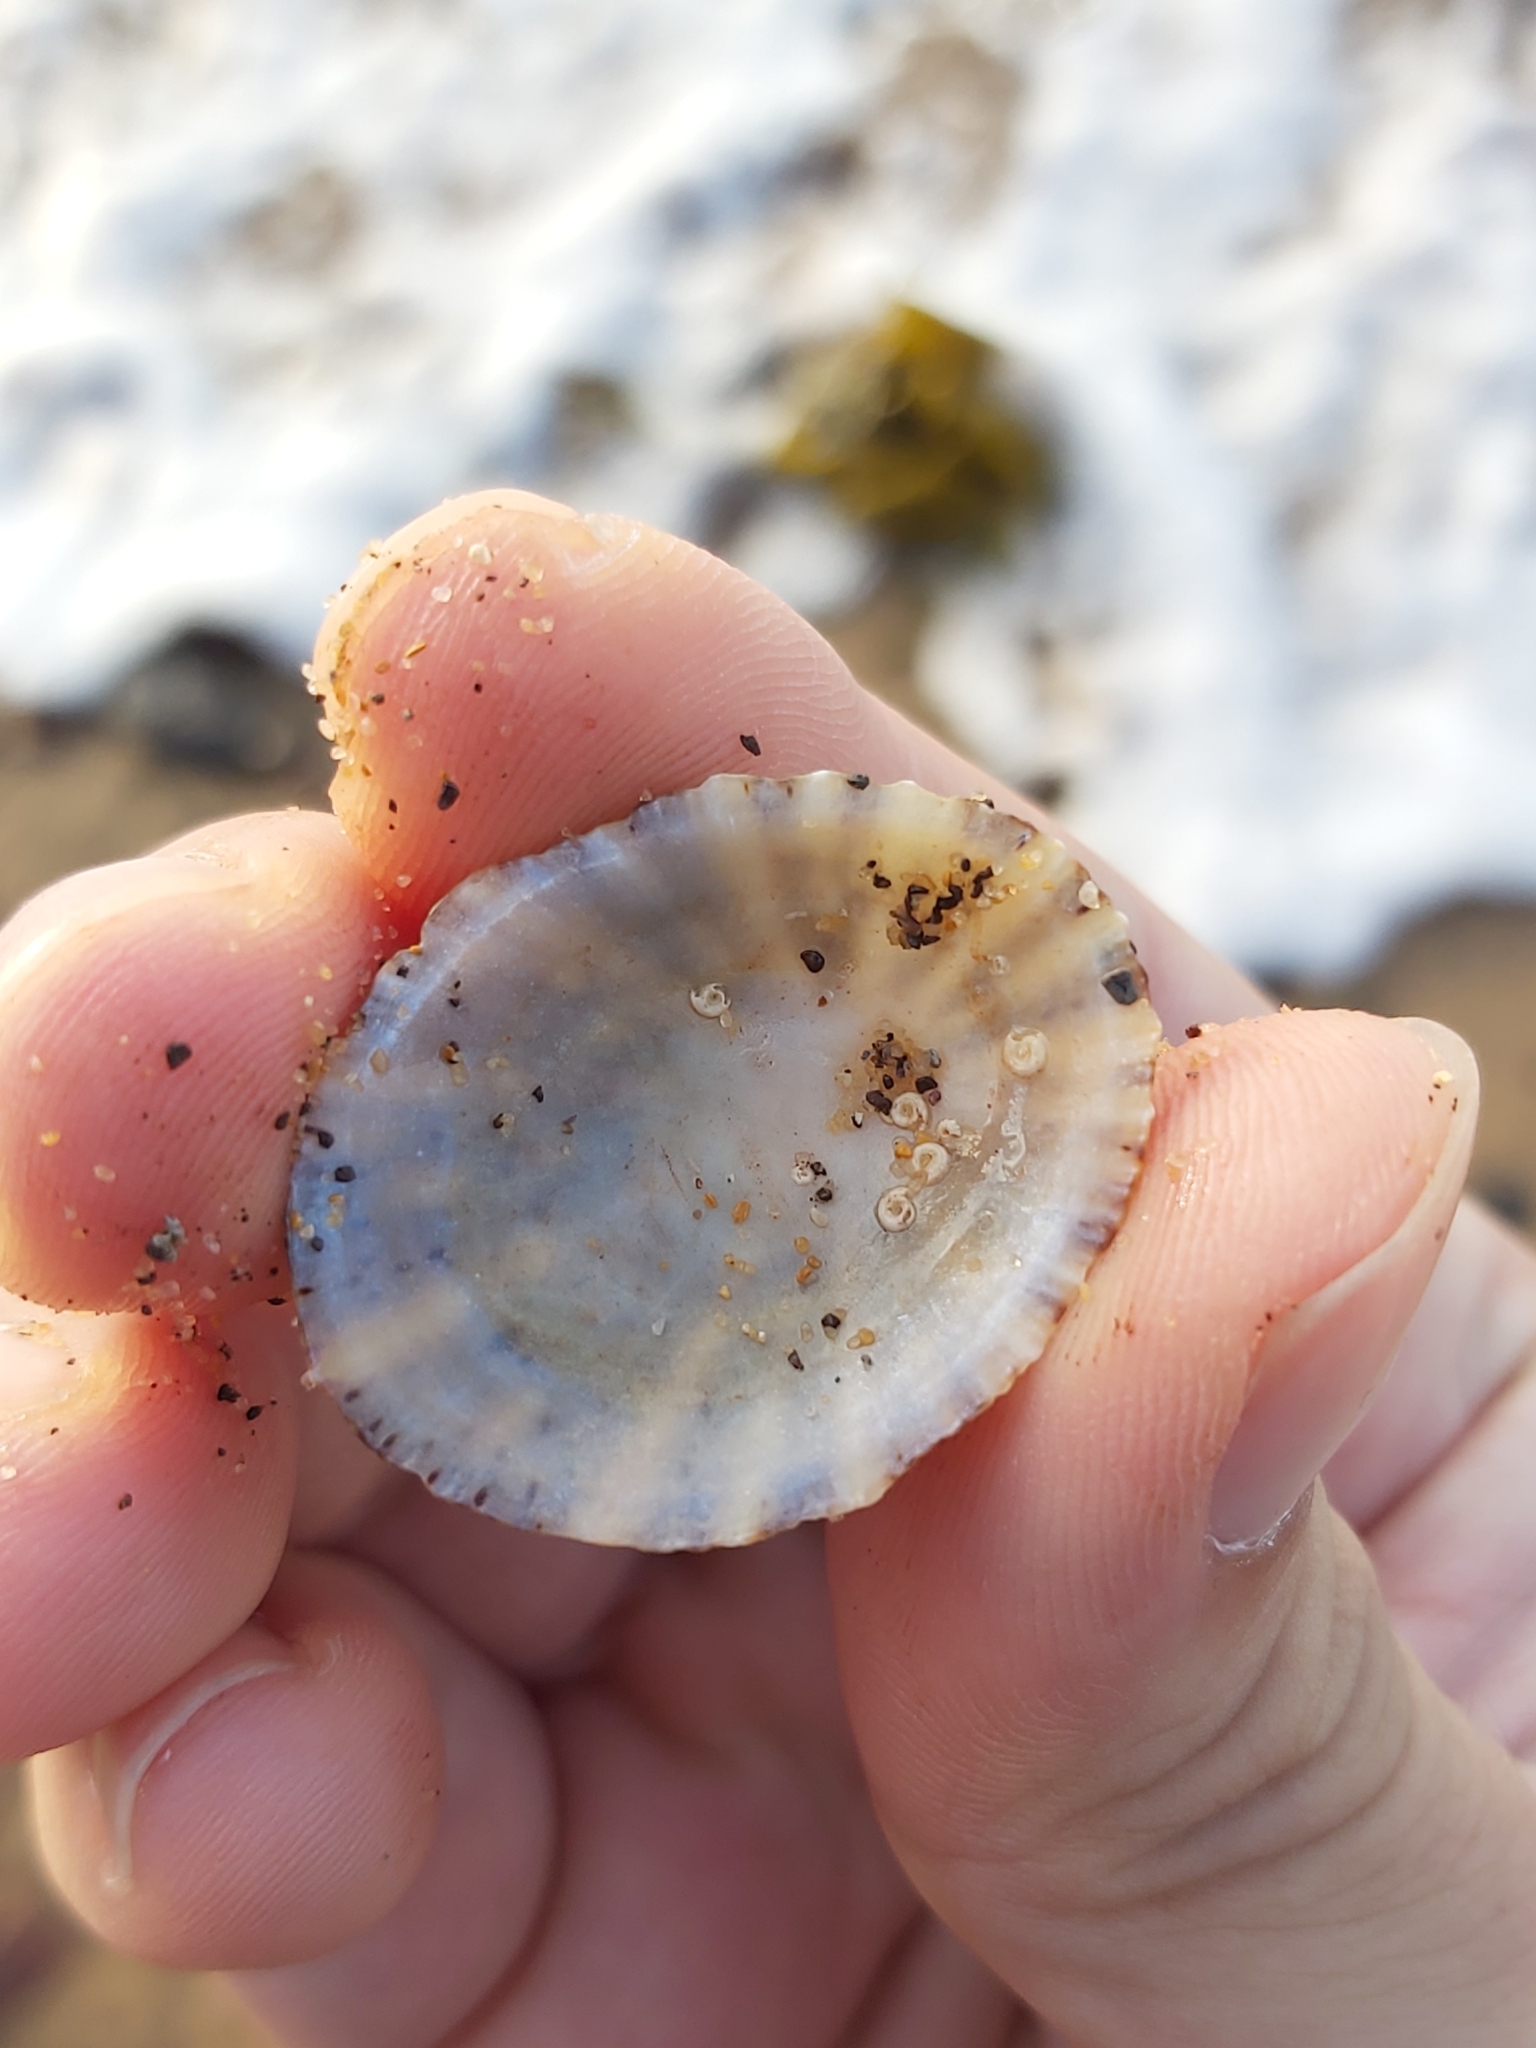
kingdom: Animalia
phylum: Mollusca
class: Gastropoda
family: Nacellidae
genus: Cellana
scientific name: Cellana tramoserica
